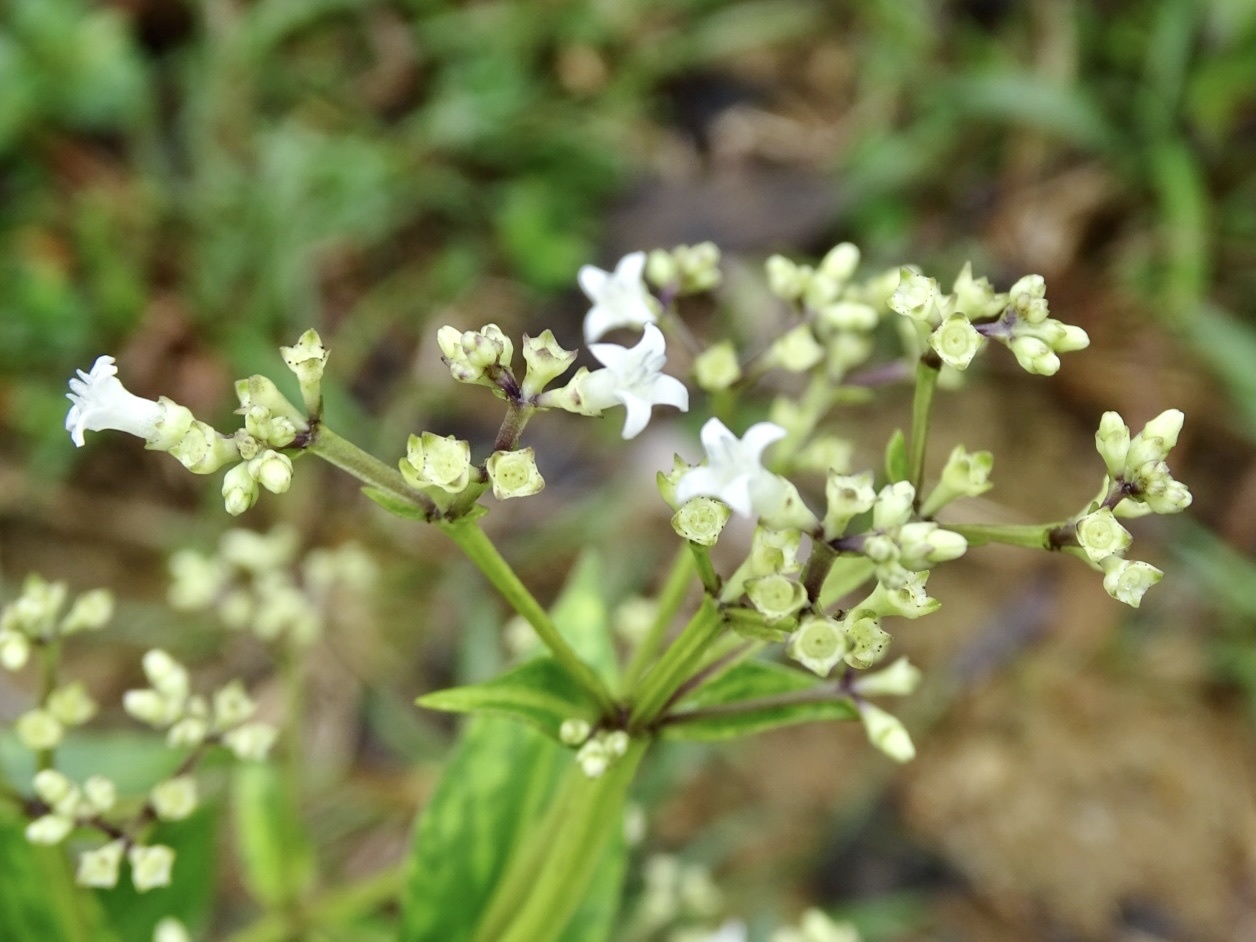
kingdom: Plantae
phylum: Tracheophyta
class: Magnoliopsida
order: Gentianales
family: Rubiaceae
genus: Hedyotis
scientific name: Hedyotis acutangula
